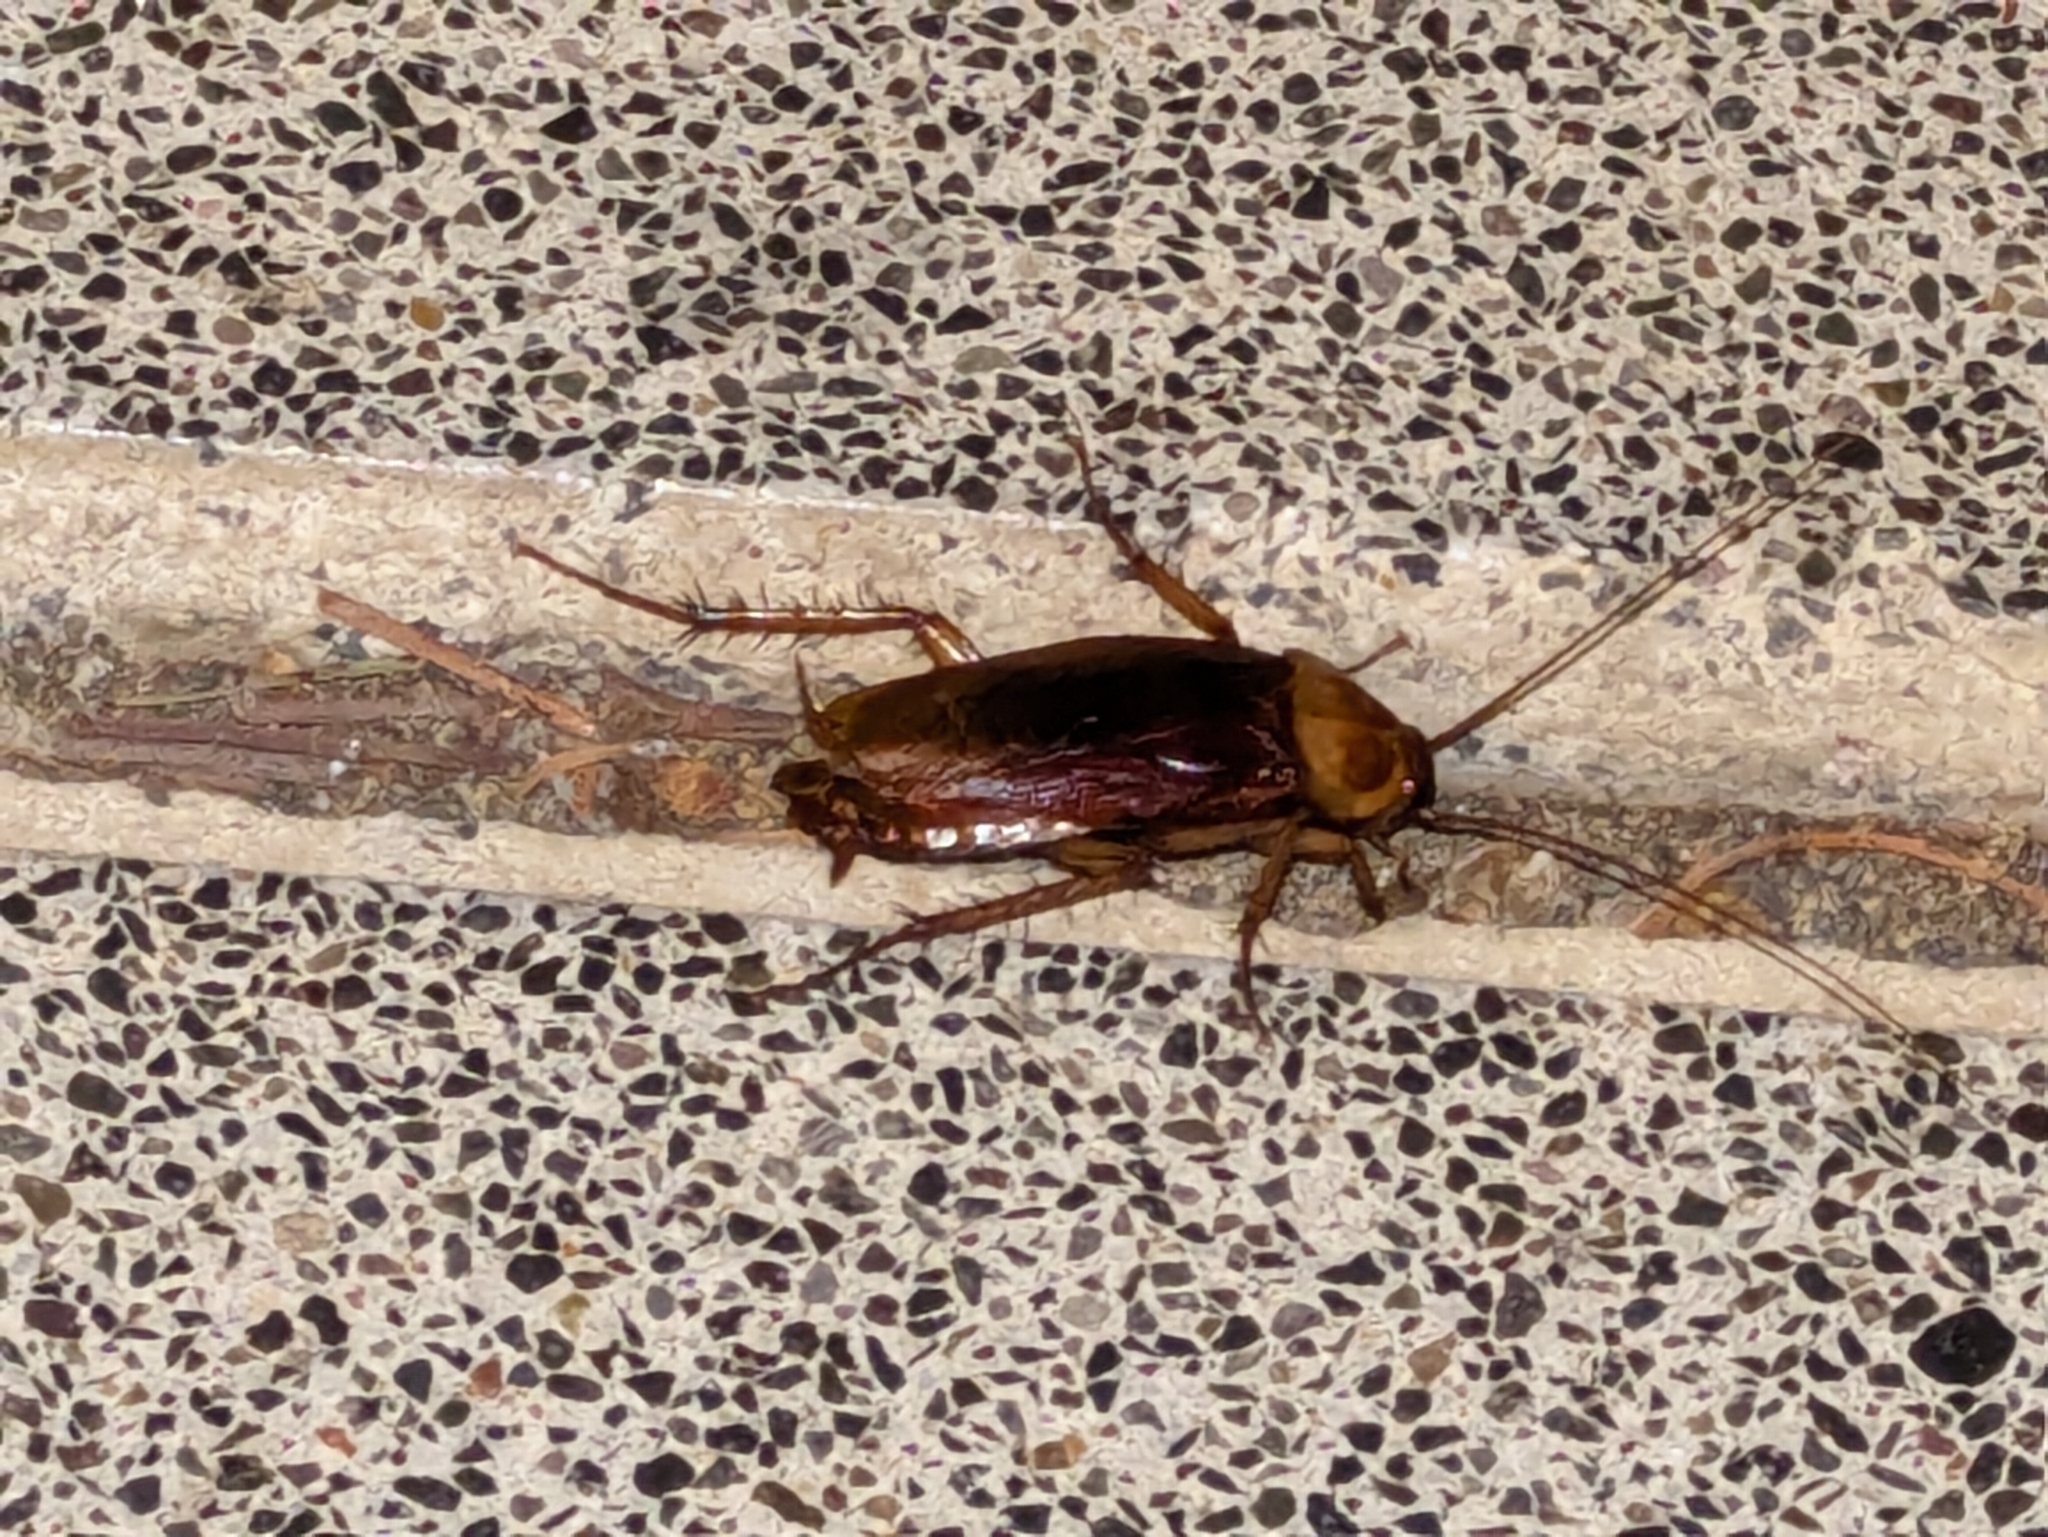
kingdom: Animalia
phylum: Arthropoda
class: Insecta
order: Blattodea
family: Blattidae
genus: Periplaneta
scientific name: Periplaneta americana
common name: American cockroach
